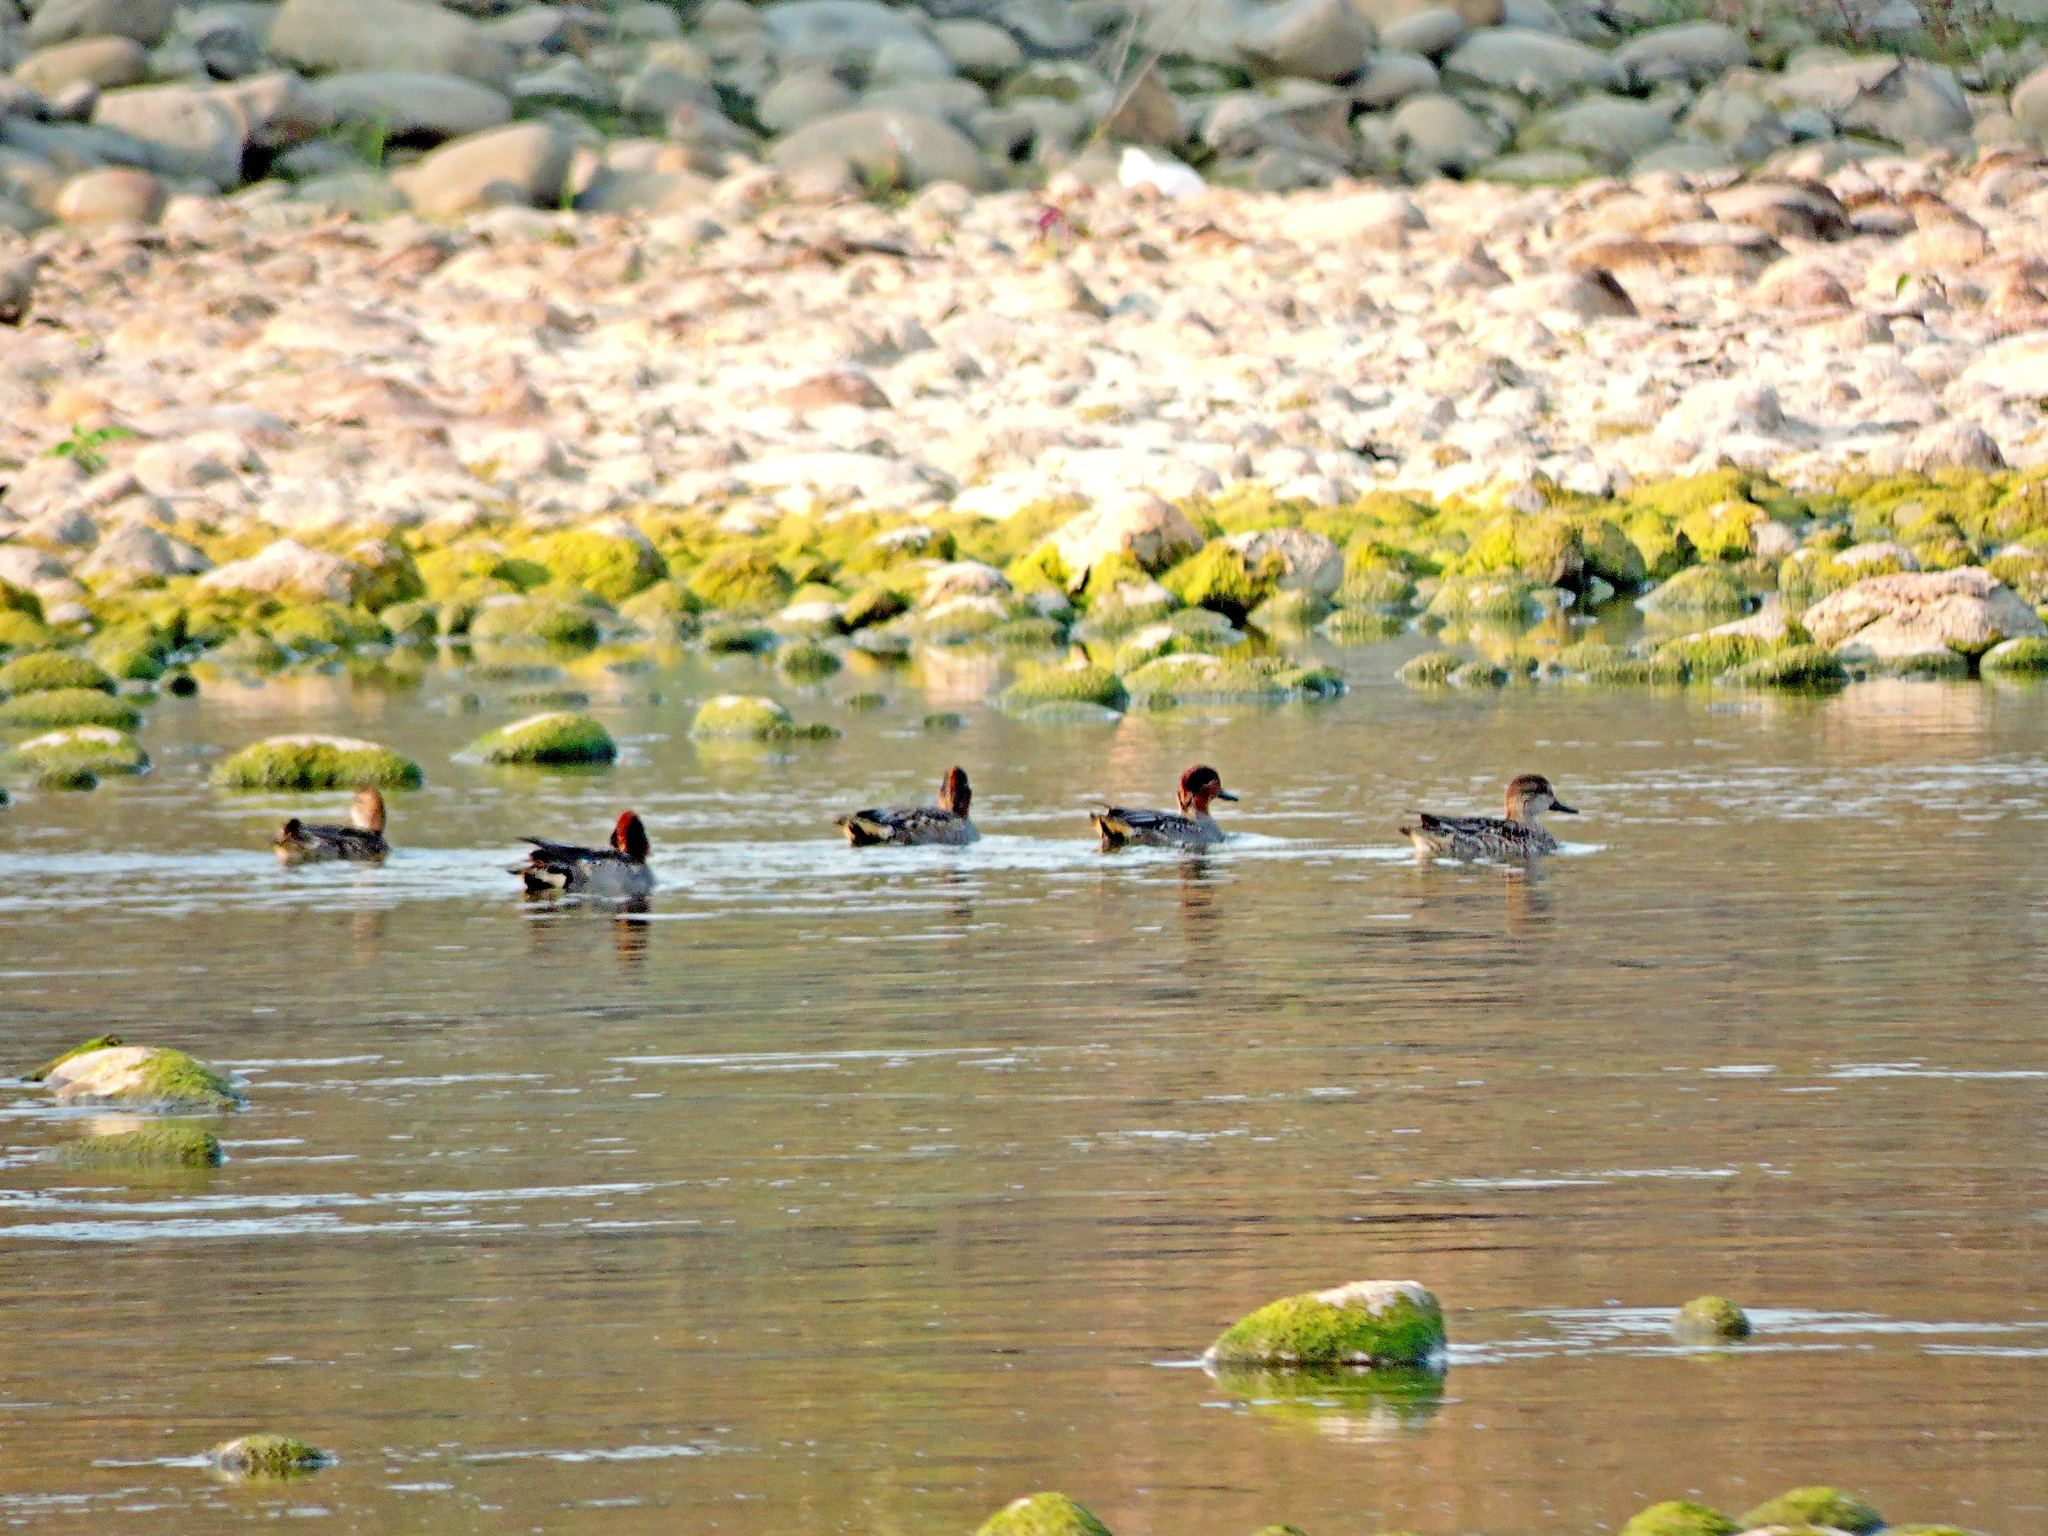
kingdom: Animalia
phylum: Chordata
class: Aves
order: Anseriformes
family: Anatidae
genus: Anas
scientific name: Anas crecca
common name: Eurasian teal
